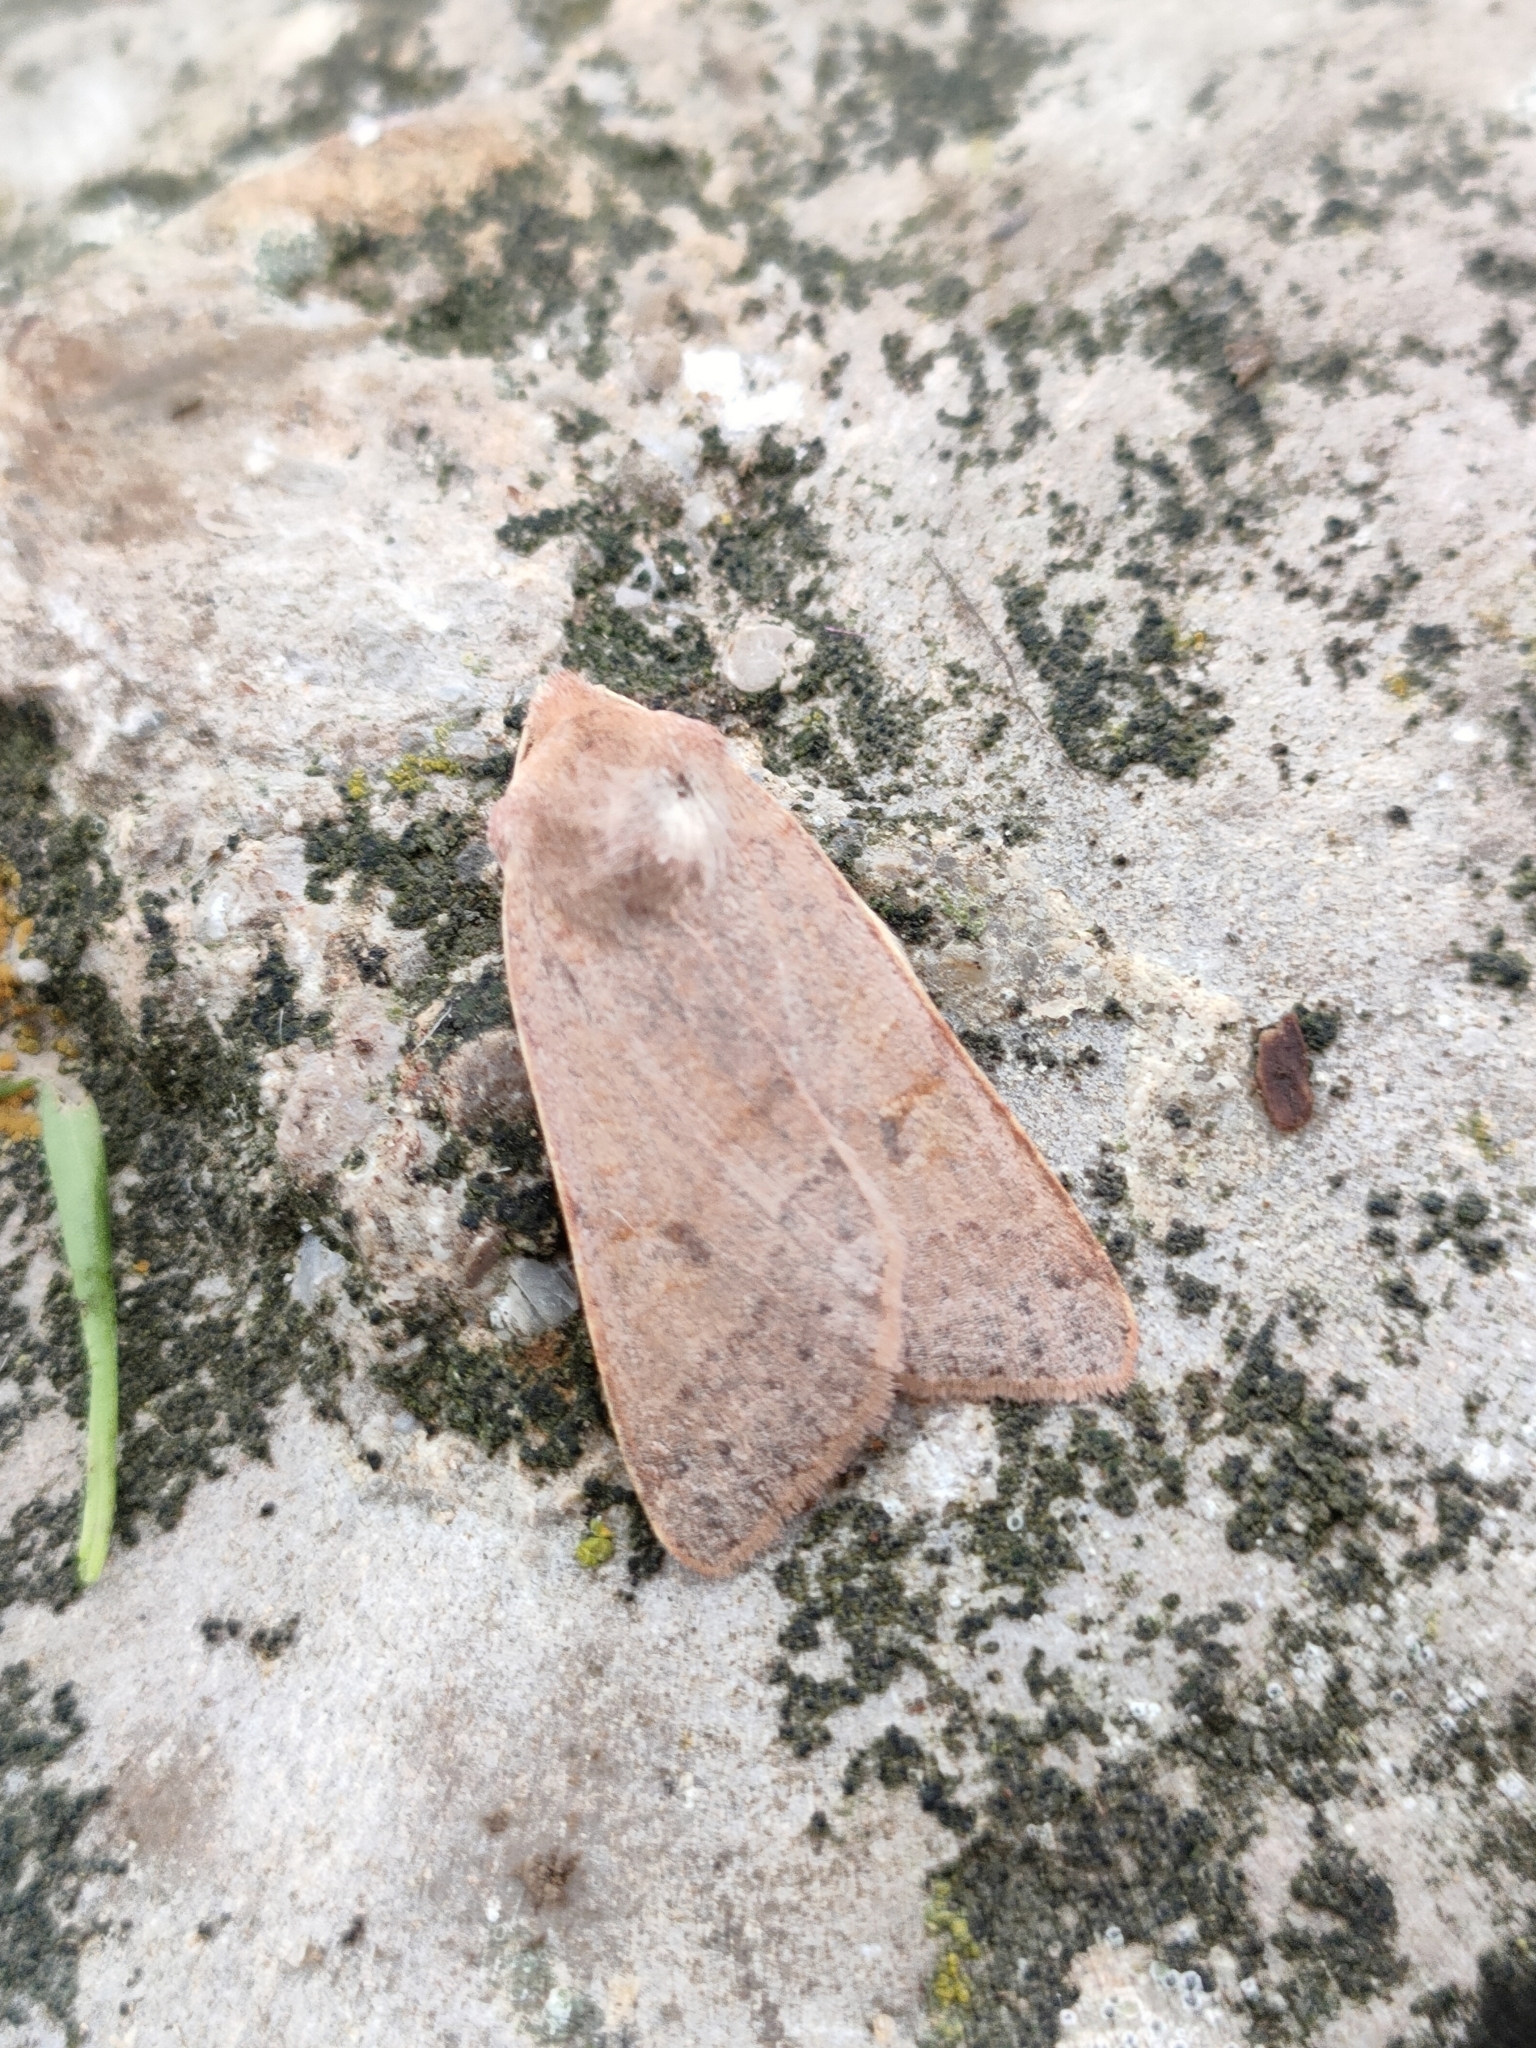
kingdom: Animalia
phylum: Arthropoda
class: Insecta
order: Lepidoptera
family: Noctuidae
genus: Agrochola
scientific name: Agrochola helvola
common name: Flounced chestnut
